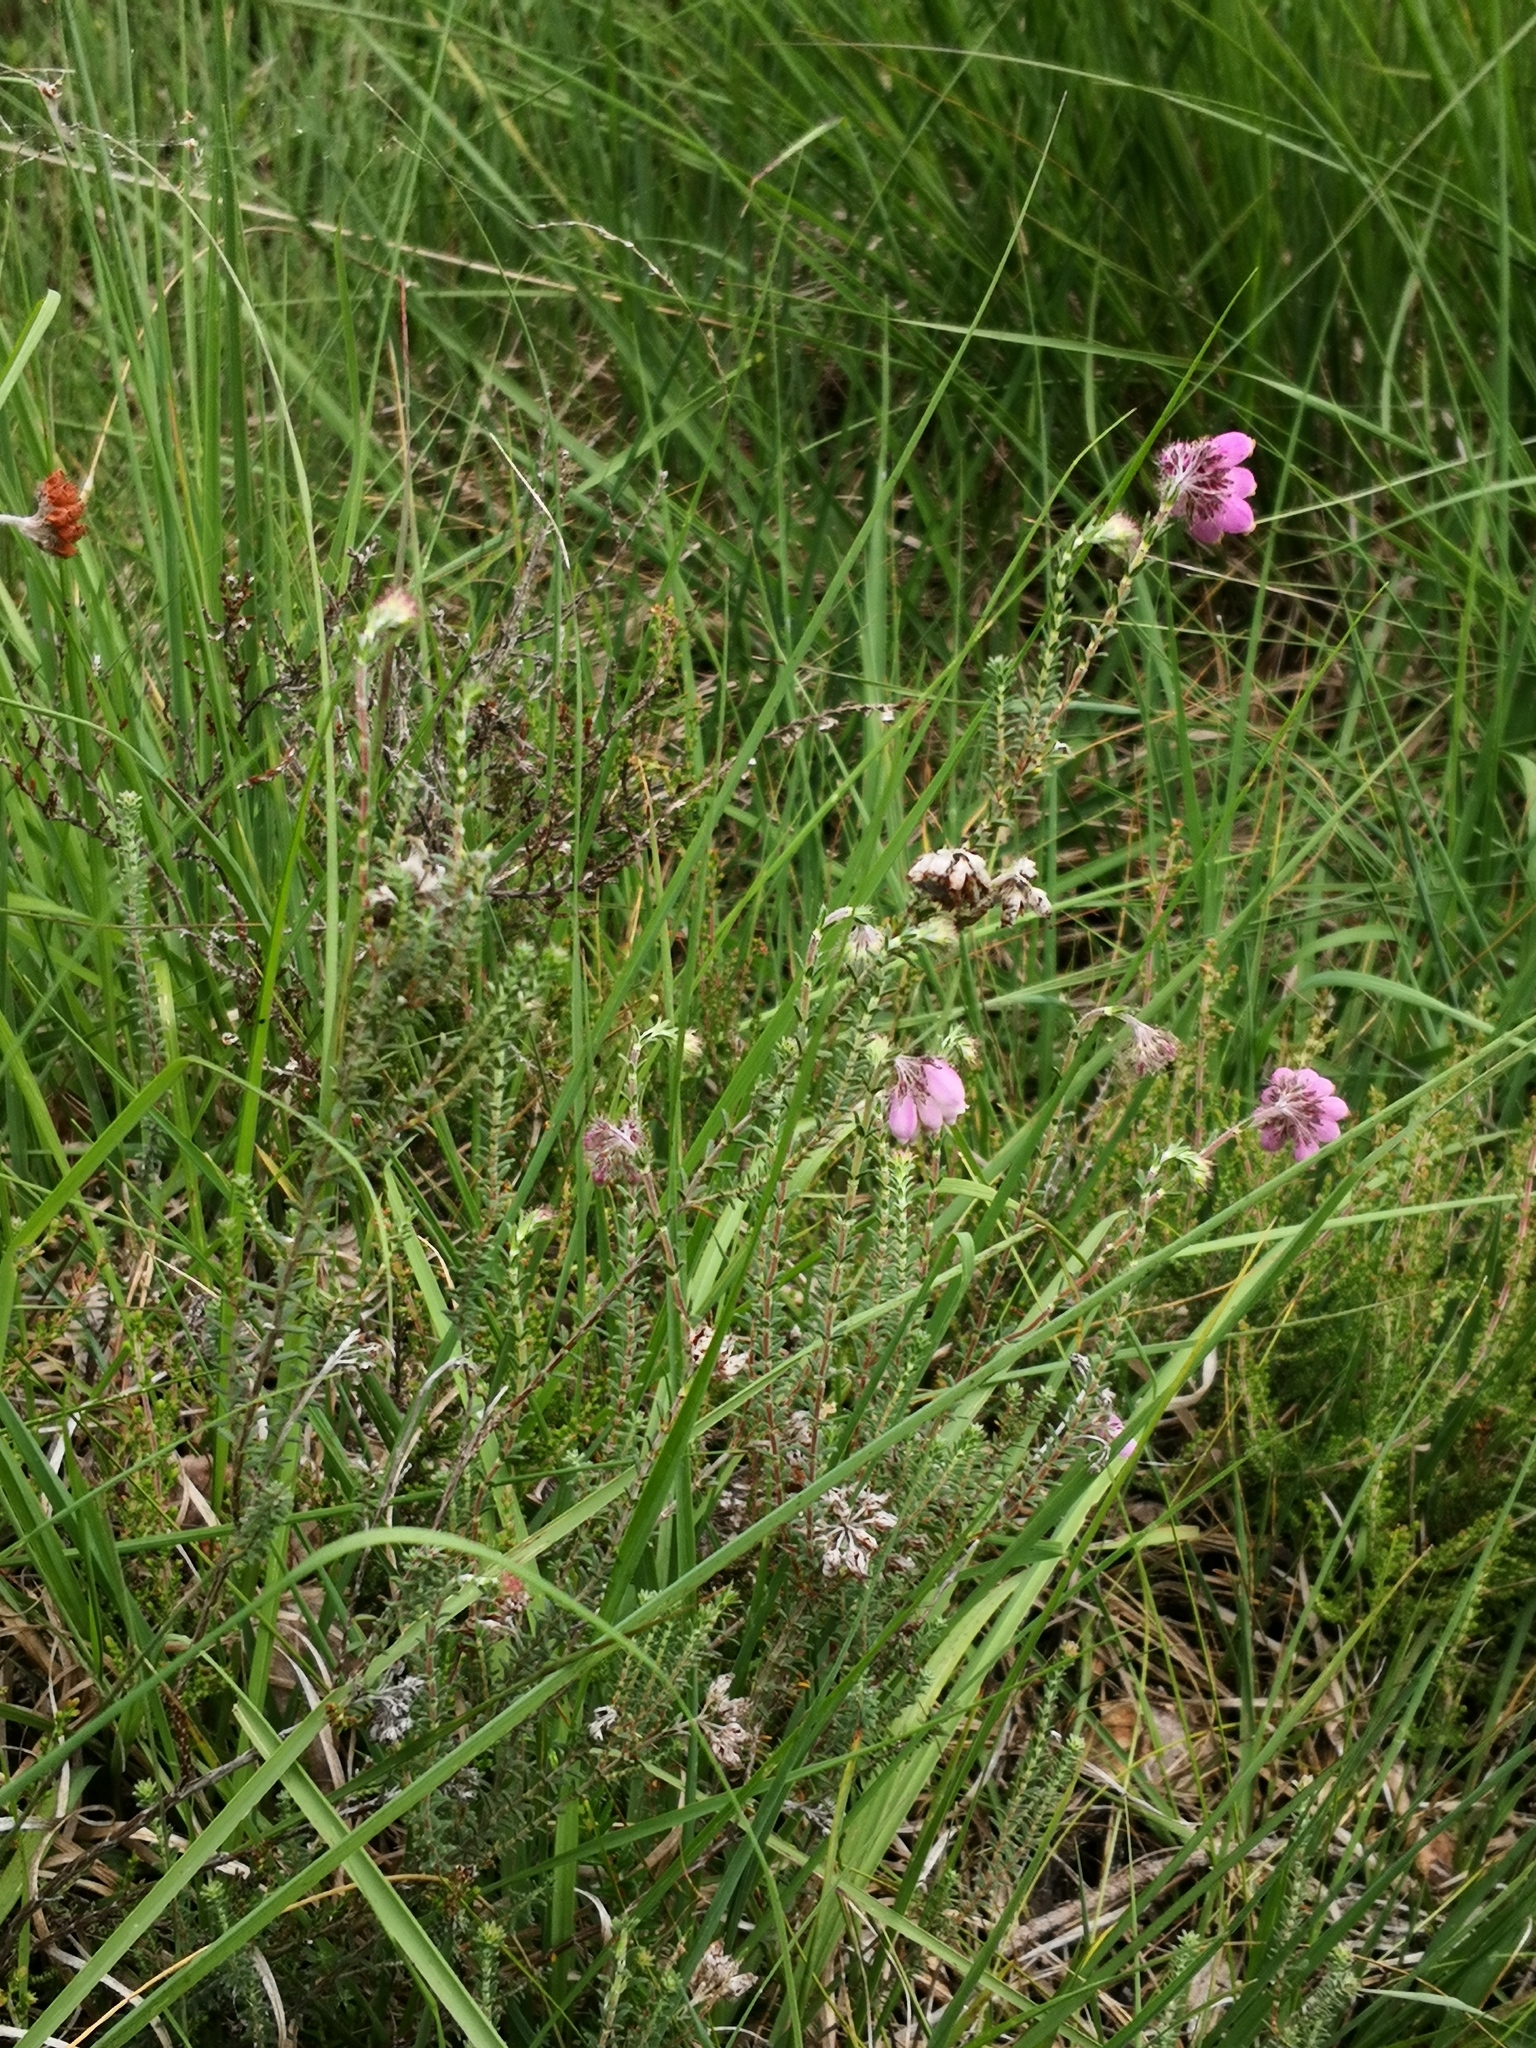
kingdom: Plantae
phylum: Tracheophyta
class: Magnoliopsida
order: Ericales
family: Ericaceae
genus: Erica
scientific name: Erica tetralix
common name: Cross-leaved heath
